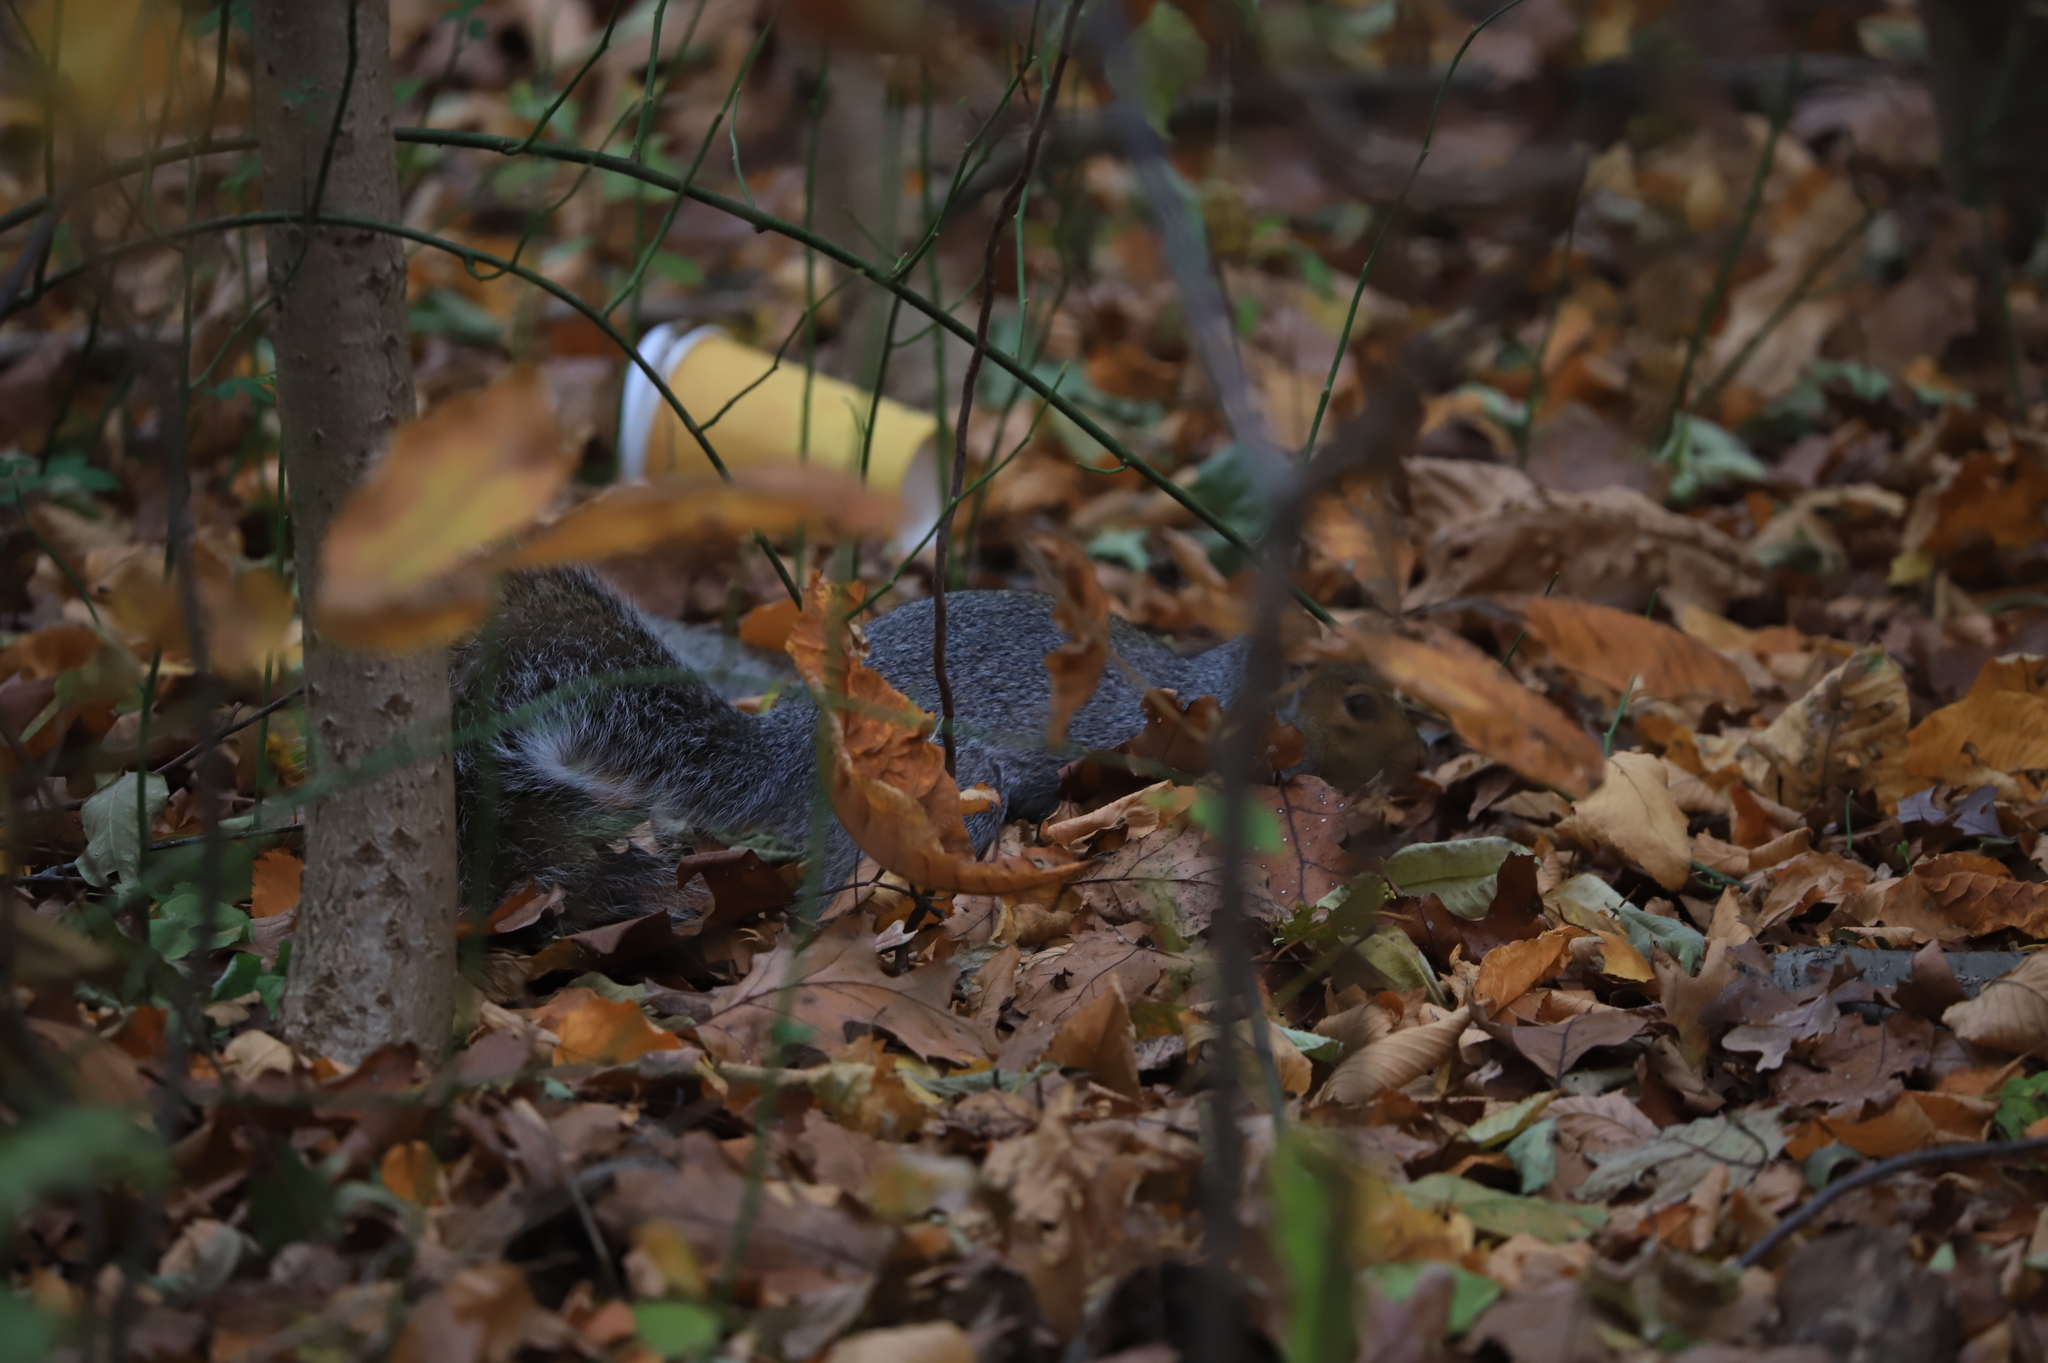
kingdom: Animalia
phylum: Chordata
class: Mammalia
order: Rodentia
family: Sciuridae
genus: Sciurus
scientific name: Sciurus carolinensis
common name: Eastern gray squirrel
